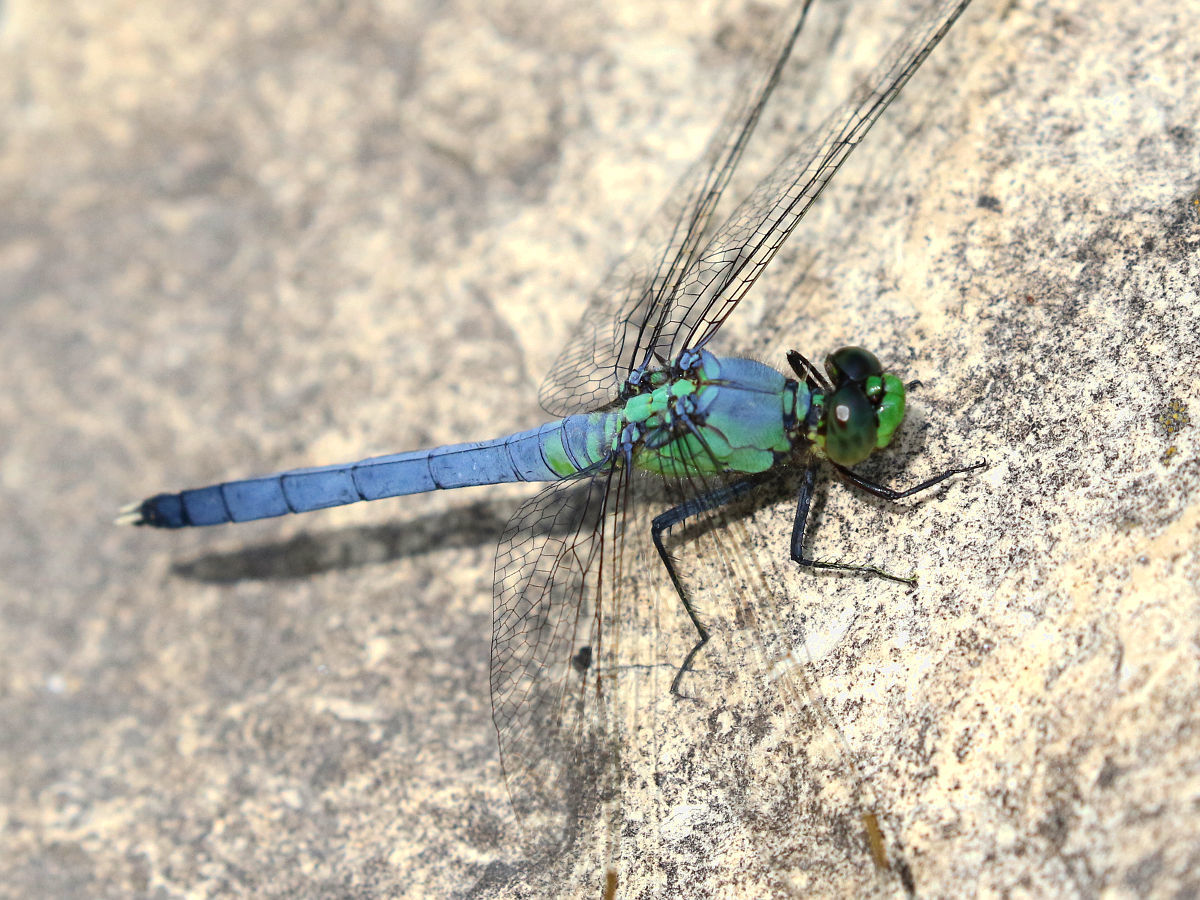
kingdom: Animalia
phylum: Arthropoda
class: Insecta
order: Odonata
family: Libellulidae
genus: Erythemis
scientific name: Erythemis simplicicollis
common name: Eastern pondhawk
